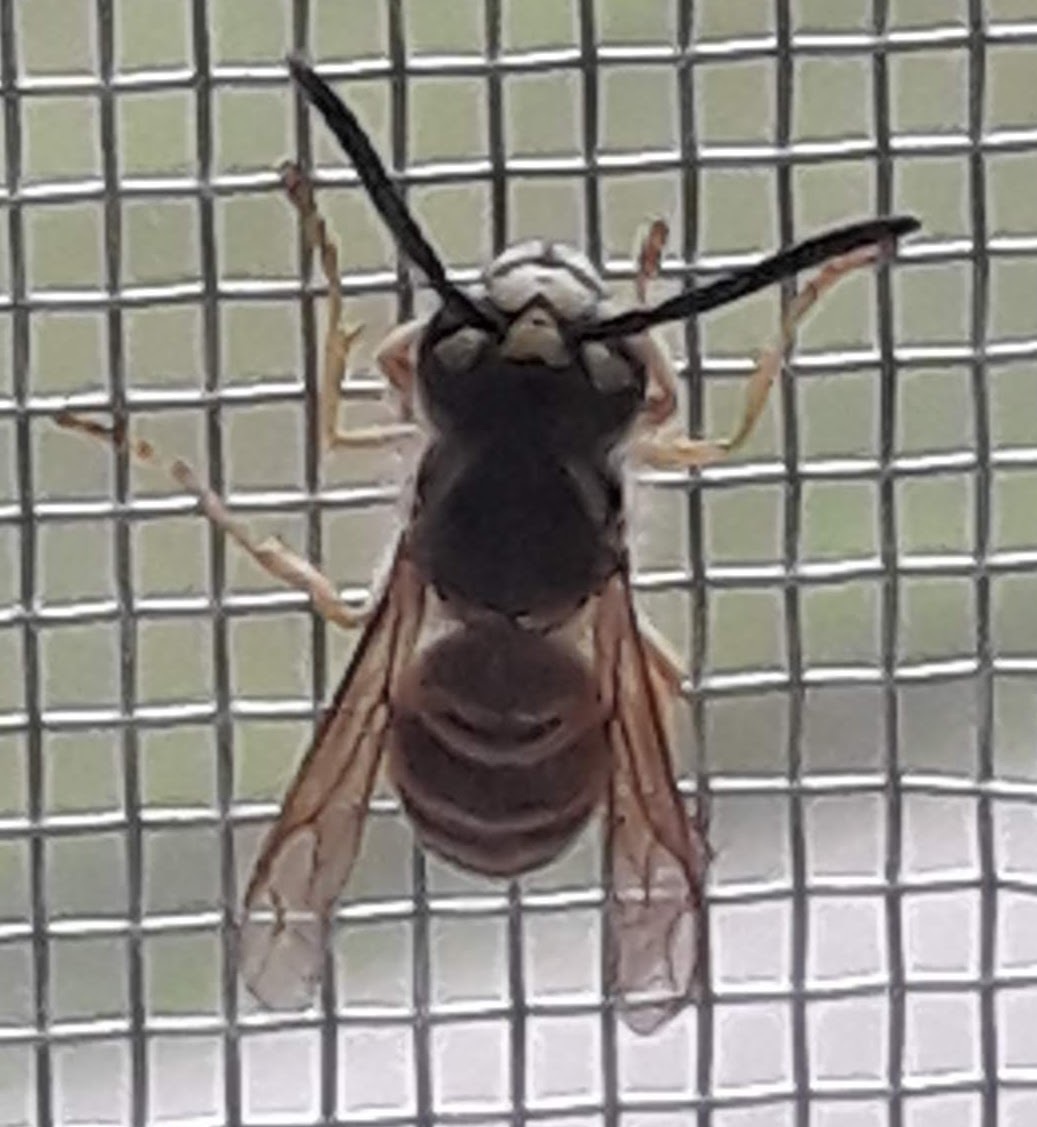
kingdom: Animalia
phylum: Arthropoda
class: Insecta
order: Hymenoptera
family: Vespidae
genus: Vespula
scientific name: Vespula maculifrons
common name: Eastern yellowjacket
